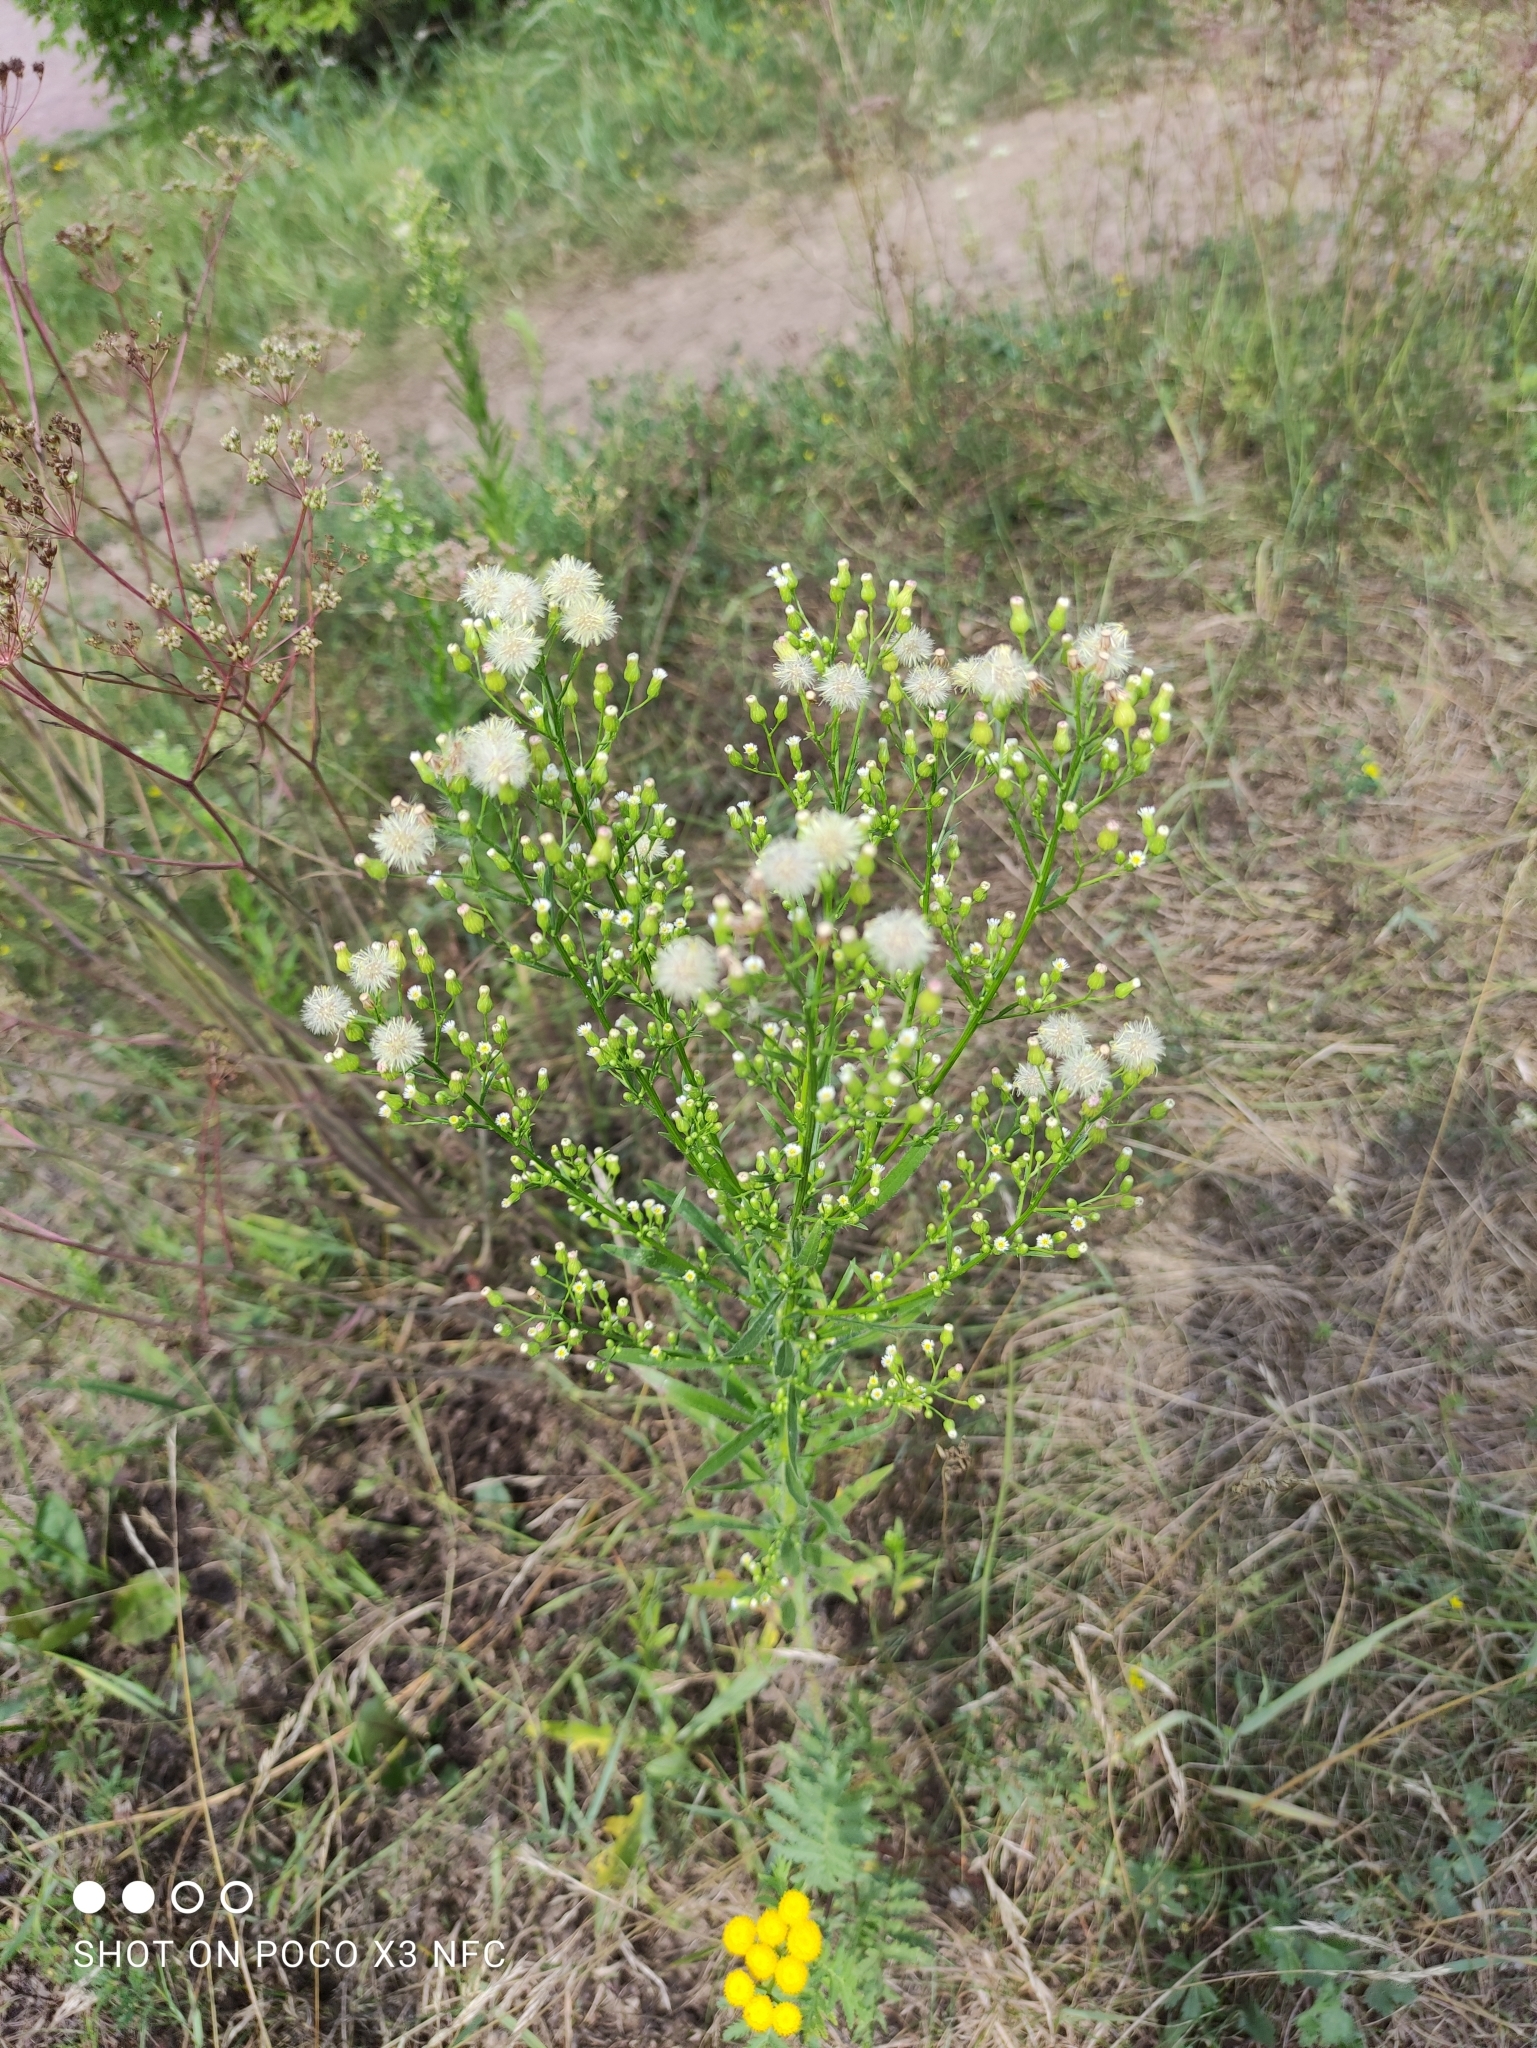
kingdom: Plantae
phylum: Tracheophyta
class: Magnoliopsida
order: Asterales
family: Asteraceae
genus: Erigeron
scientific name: Erigeron canadensis
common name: Canadian fleabane
